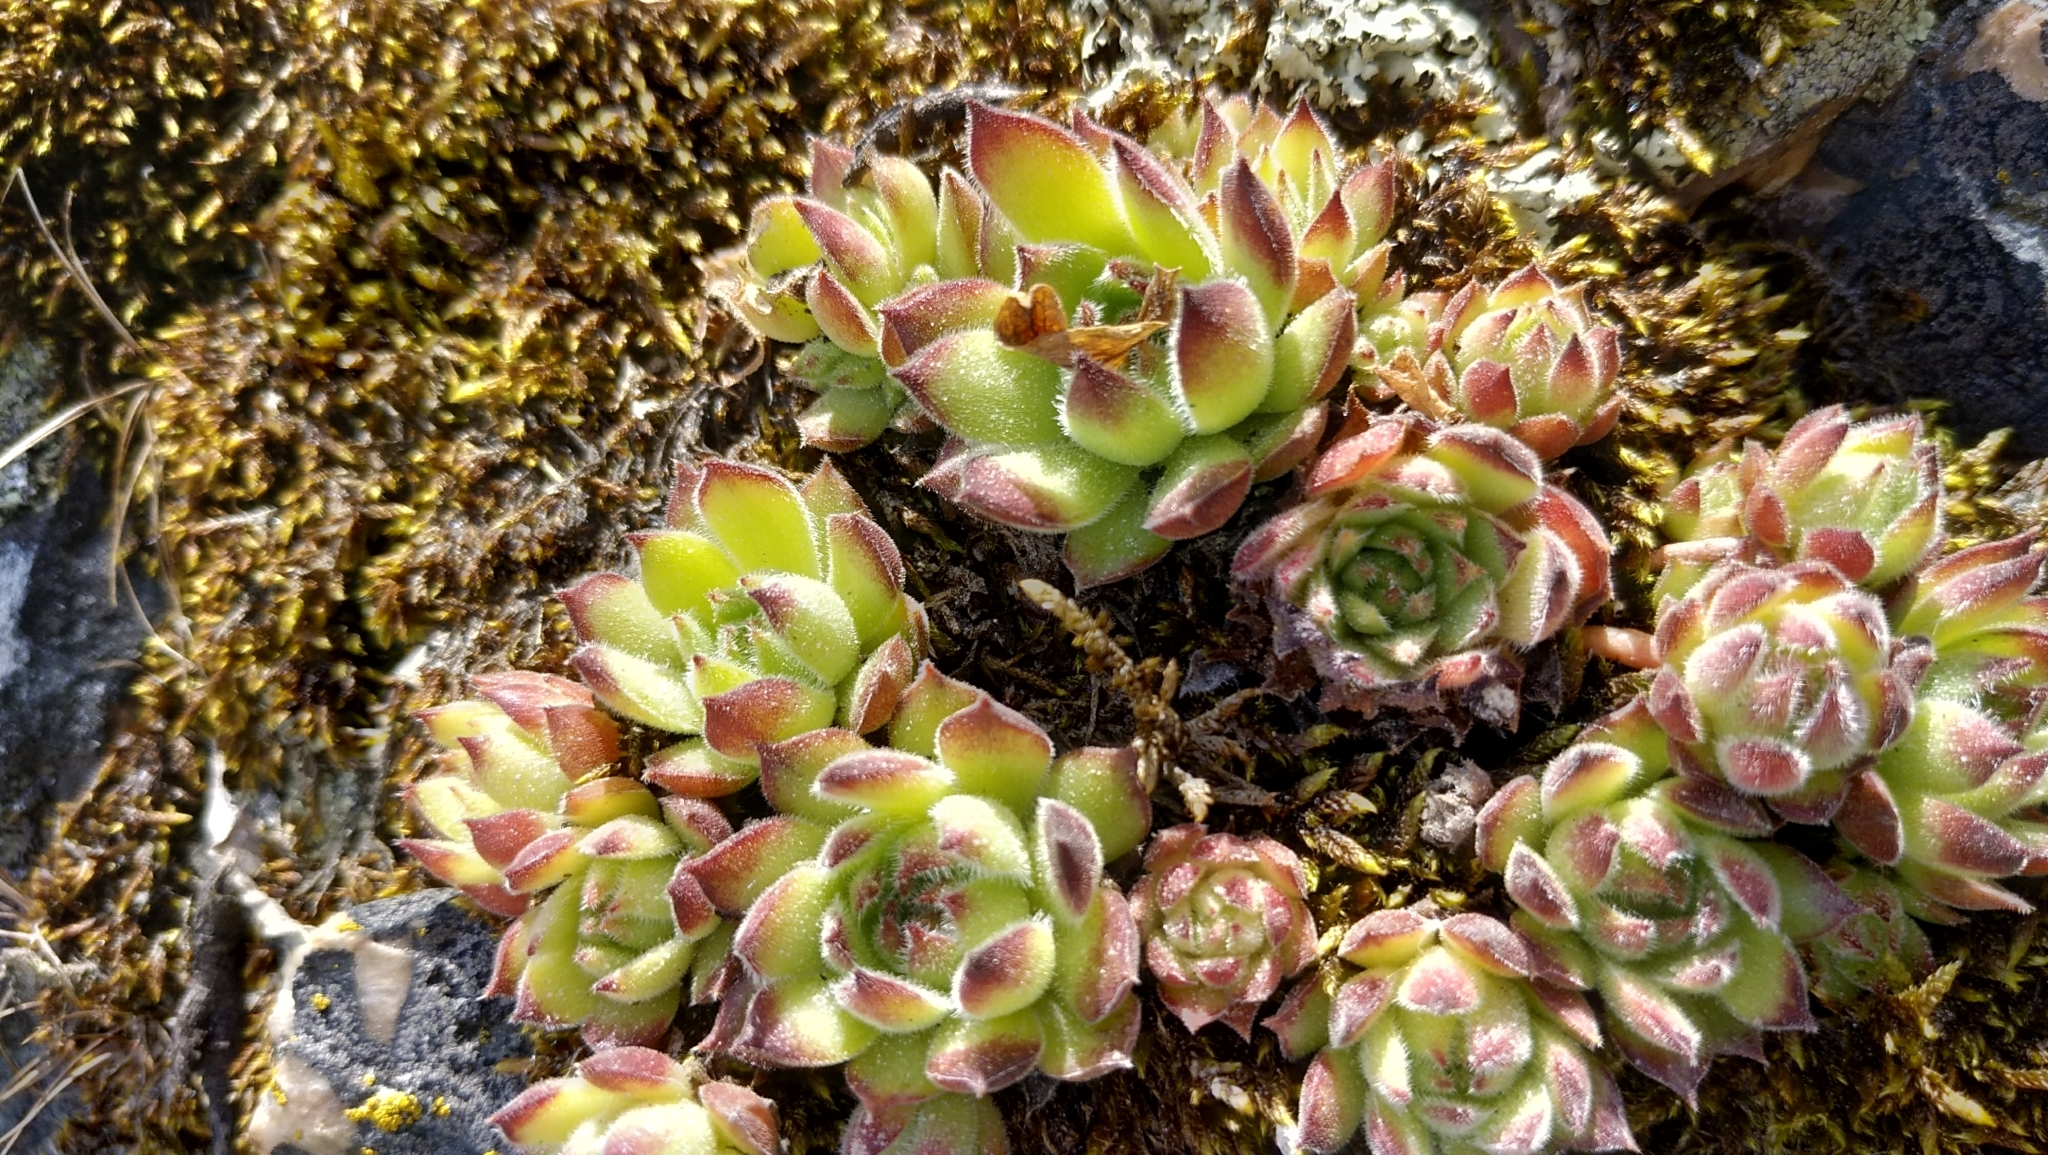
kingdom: Plantae
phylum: Tracheophyta
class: Magnoliopsida
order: Saxifragales
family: Crassulaceae
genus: Sempervivum
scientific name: Sempervivum ruthenicum
